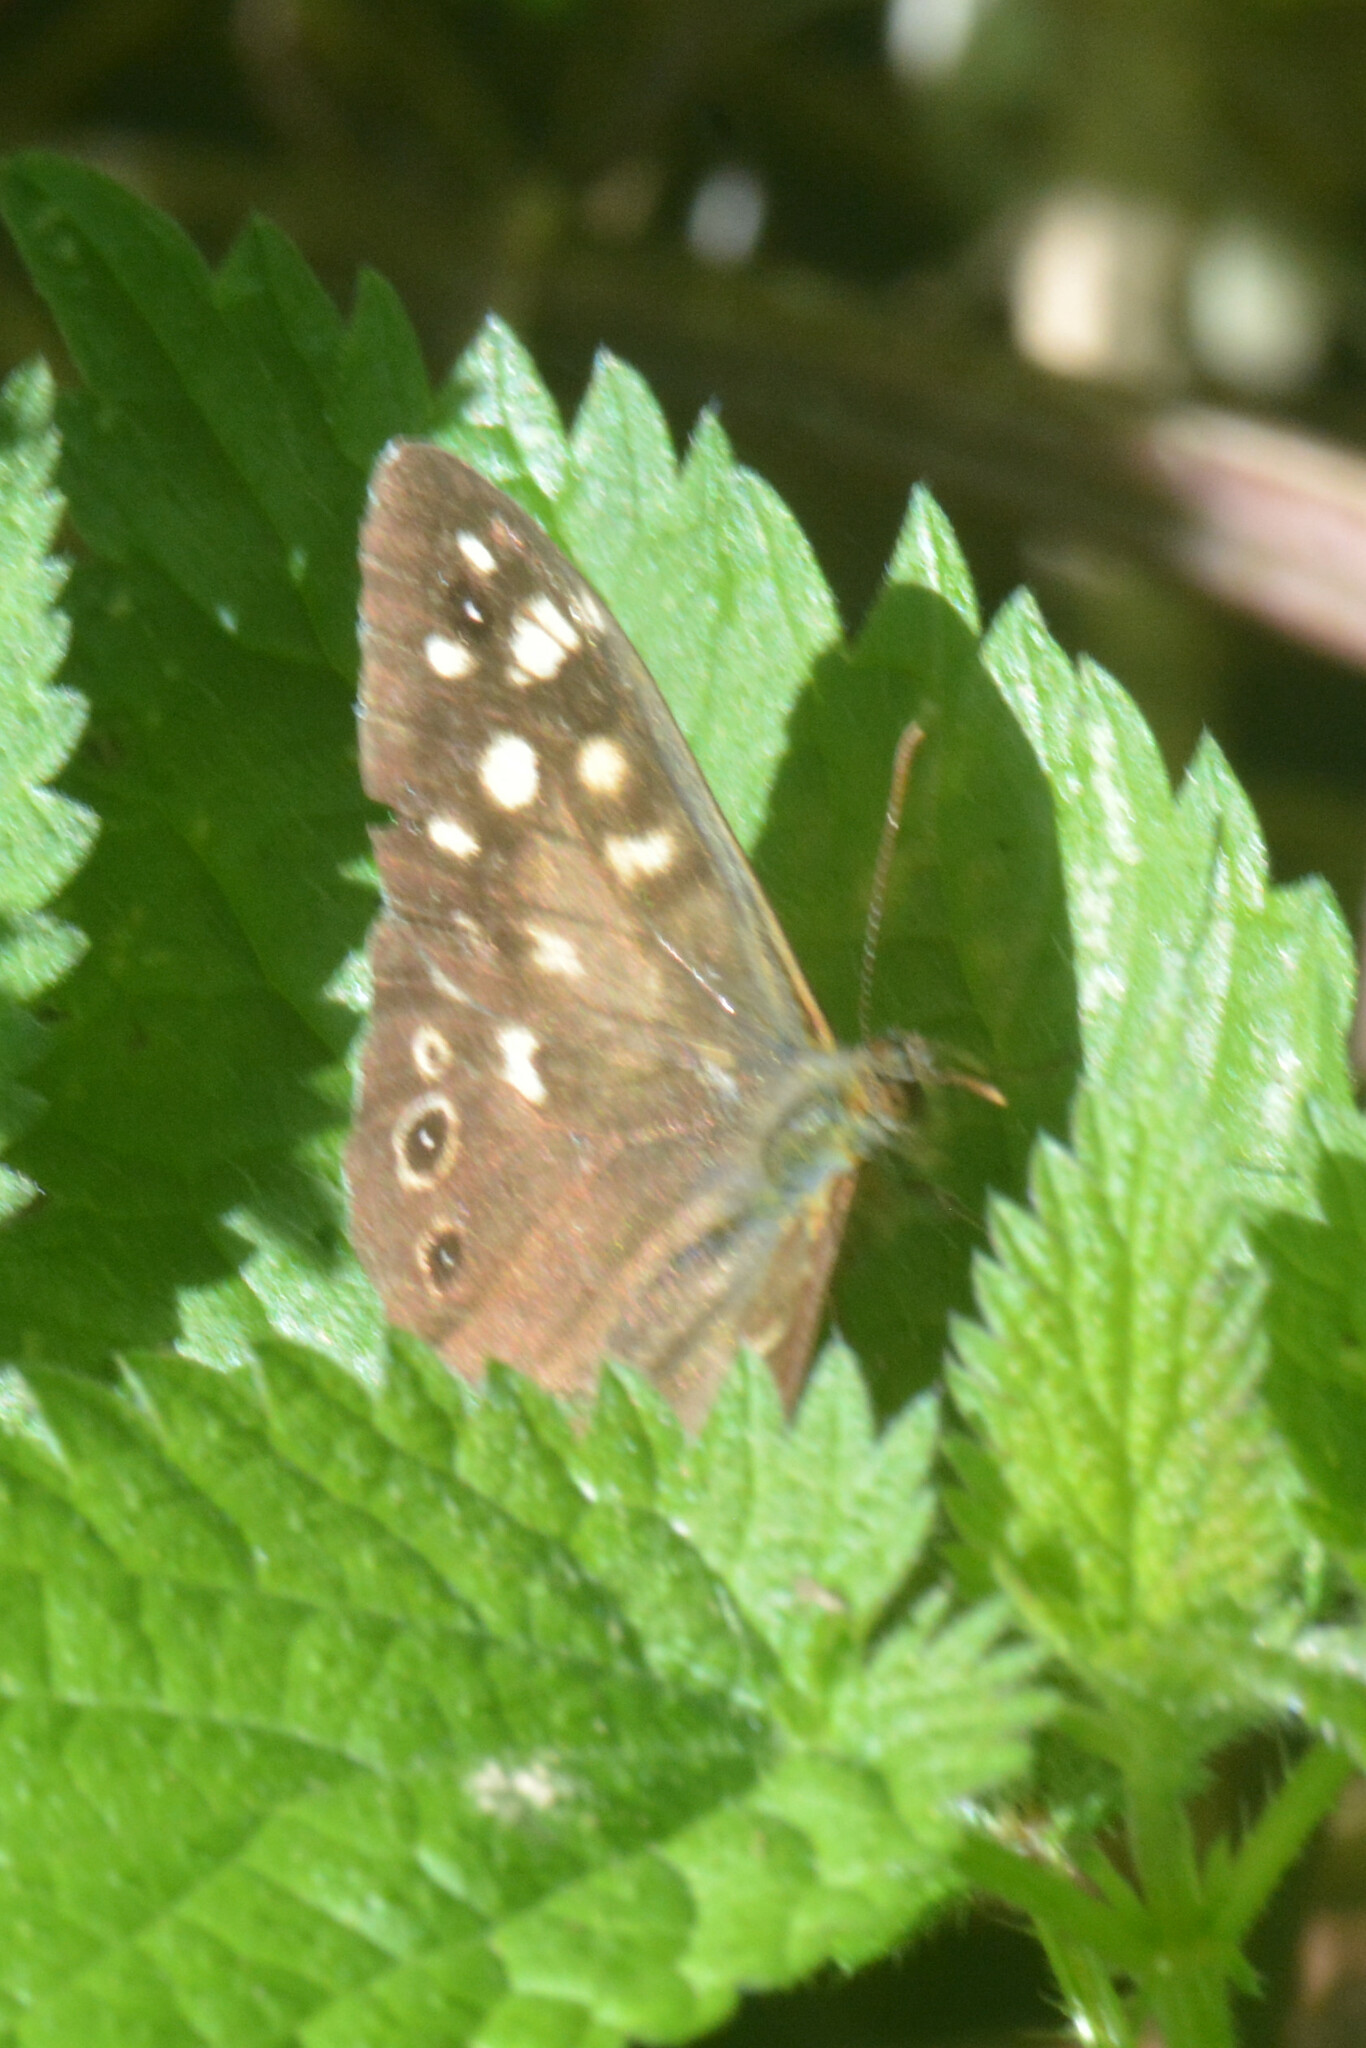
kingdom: Animalia
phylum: Arthropoda
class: Insecta
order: Lepidoptera
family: Nymphalidae
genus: Pararge
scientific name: Pararge aegeria
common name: Speckled wood
